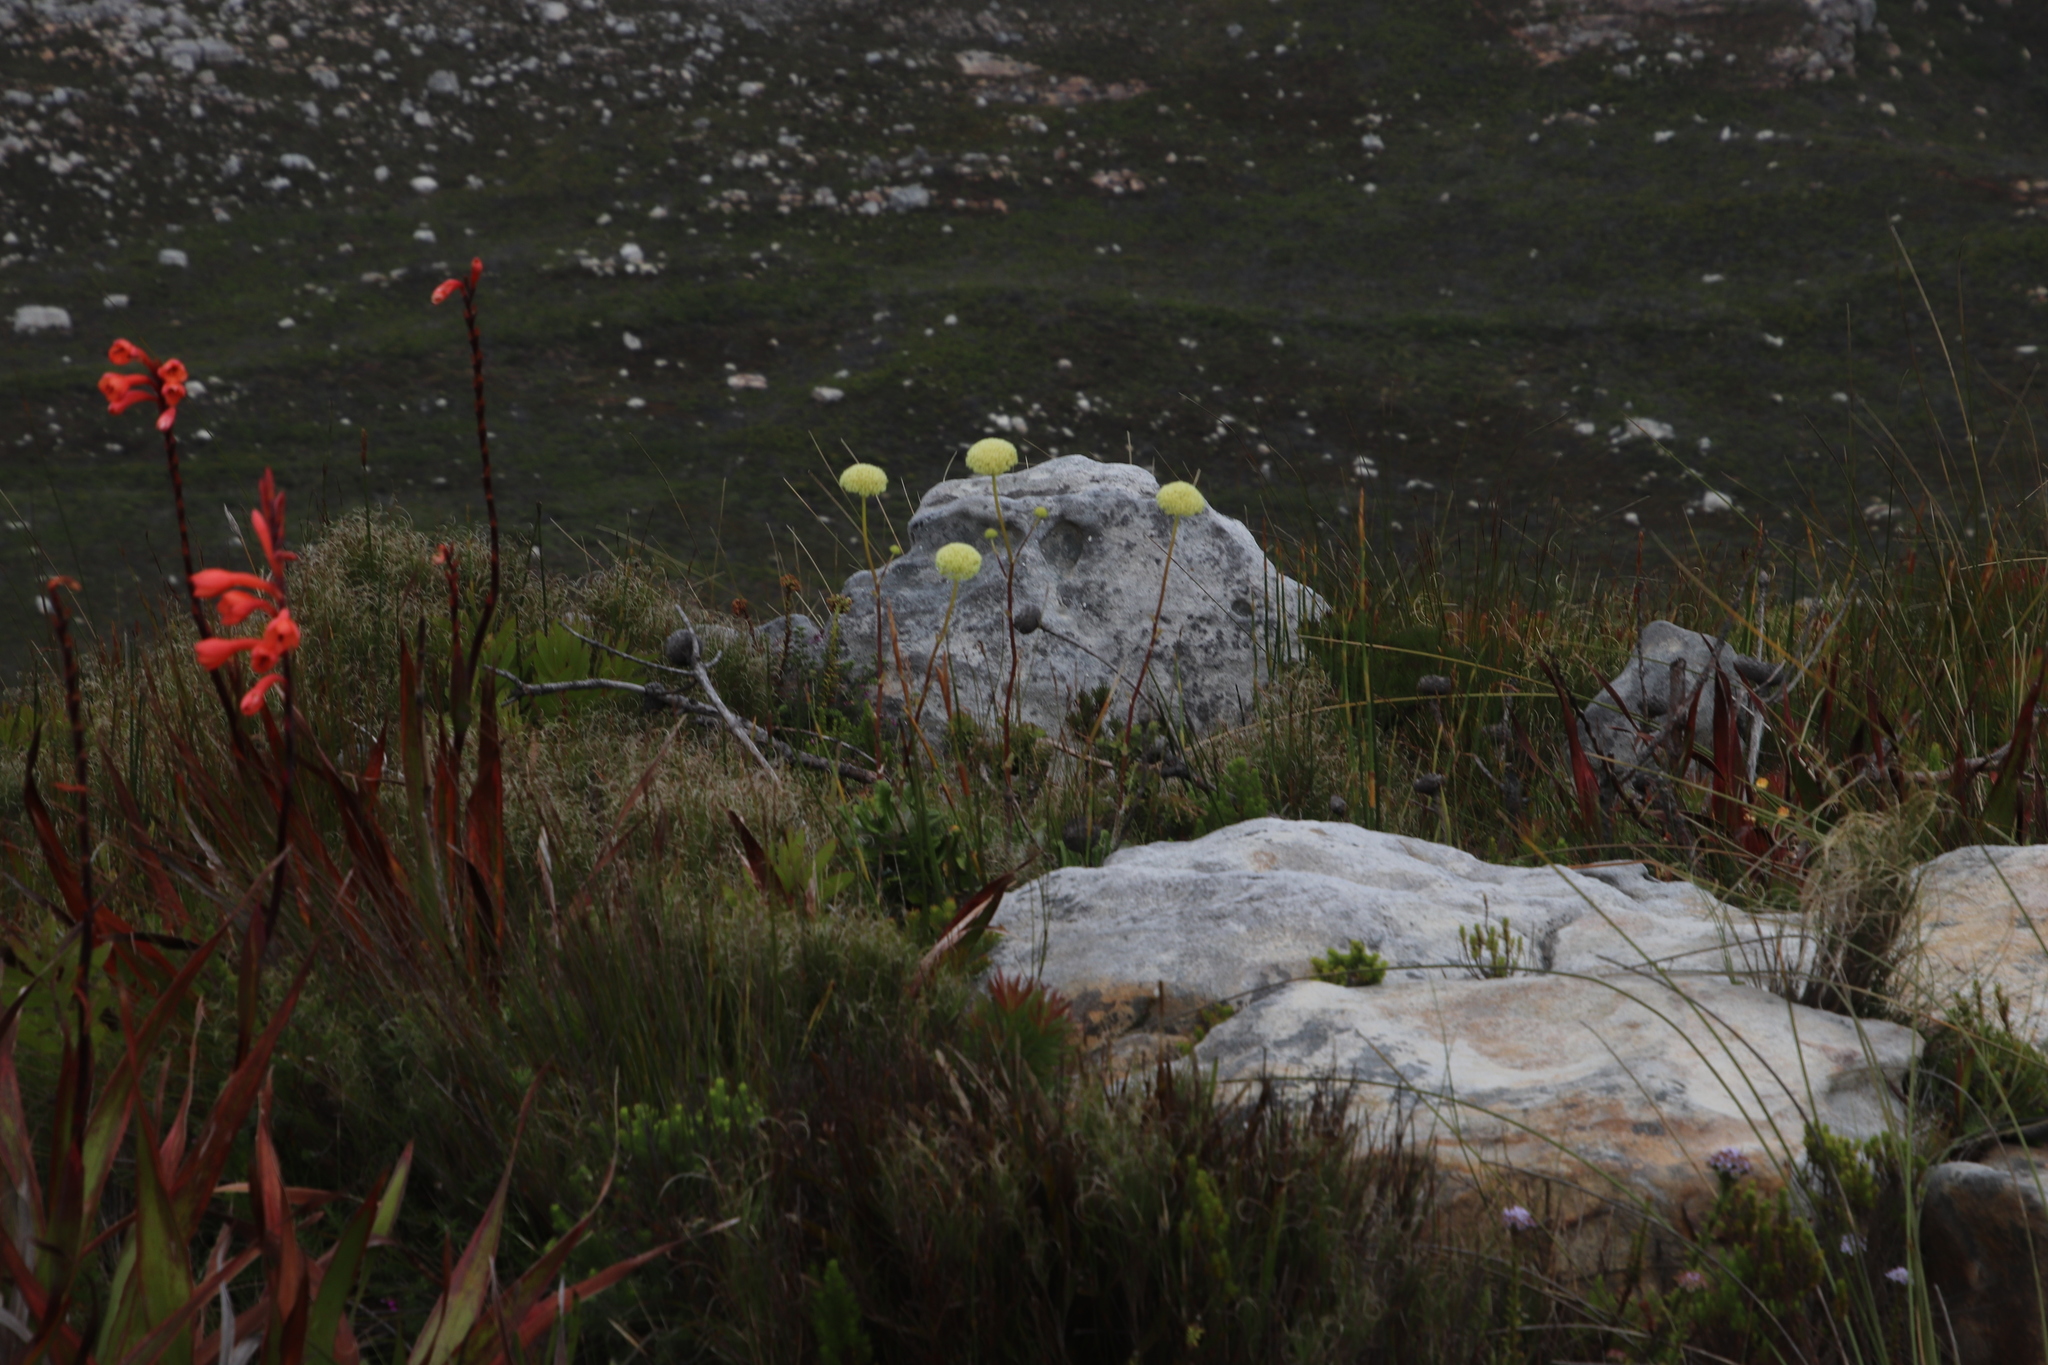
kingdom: Plantae
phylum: Tracheophyta
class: Magnoliopsida
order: Apiales
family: Apiaceae
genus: Hermas
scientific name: Hermas villosa
